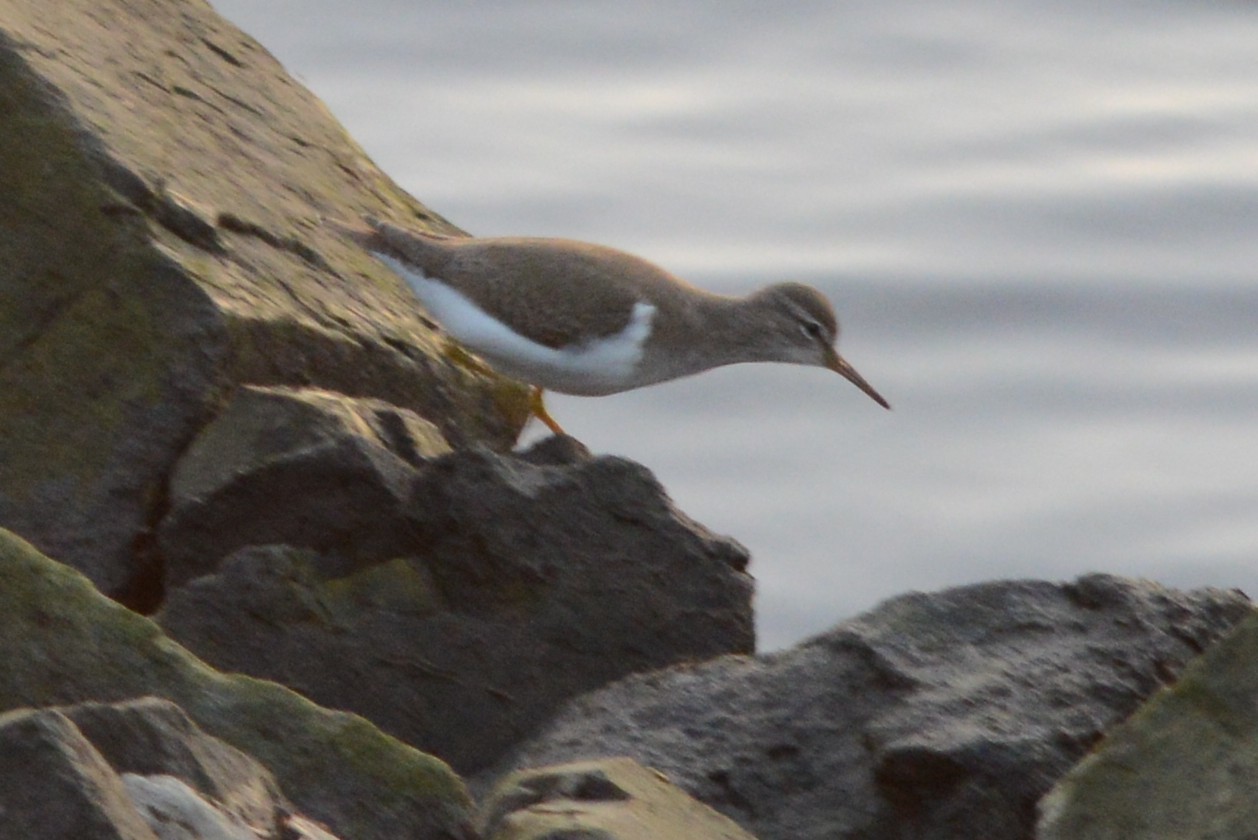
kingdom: Animalia
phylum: Chordata
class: Aves
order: Charadriiformes
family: Scolopacidae
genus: Actitis
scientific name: Actitis macularius
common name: Spotted sandpiper
